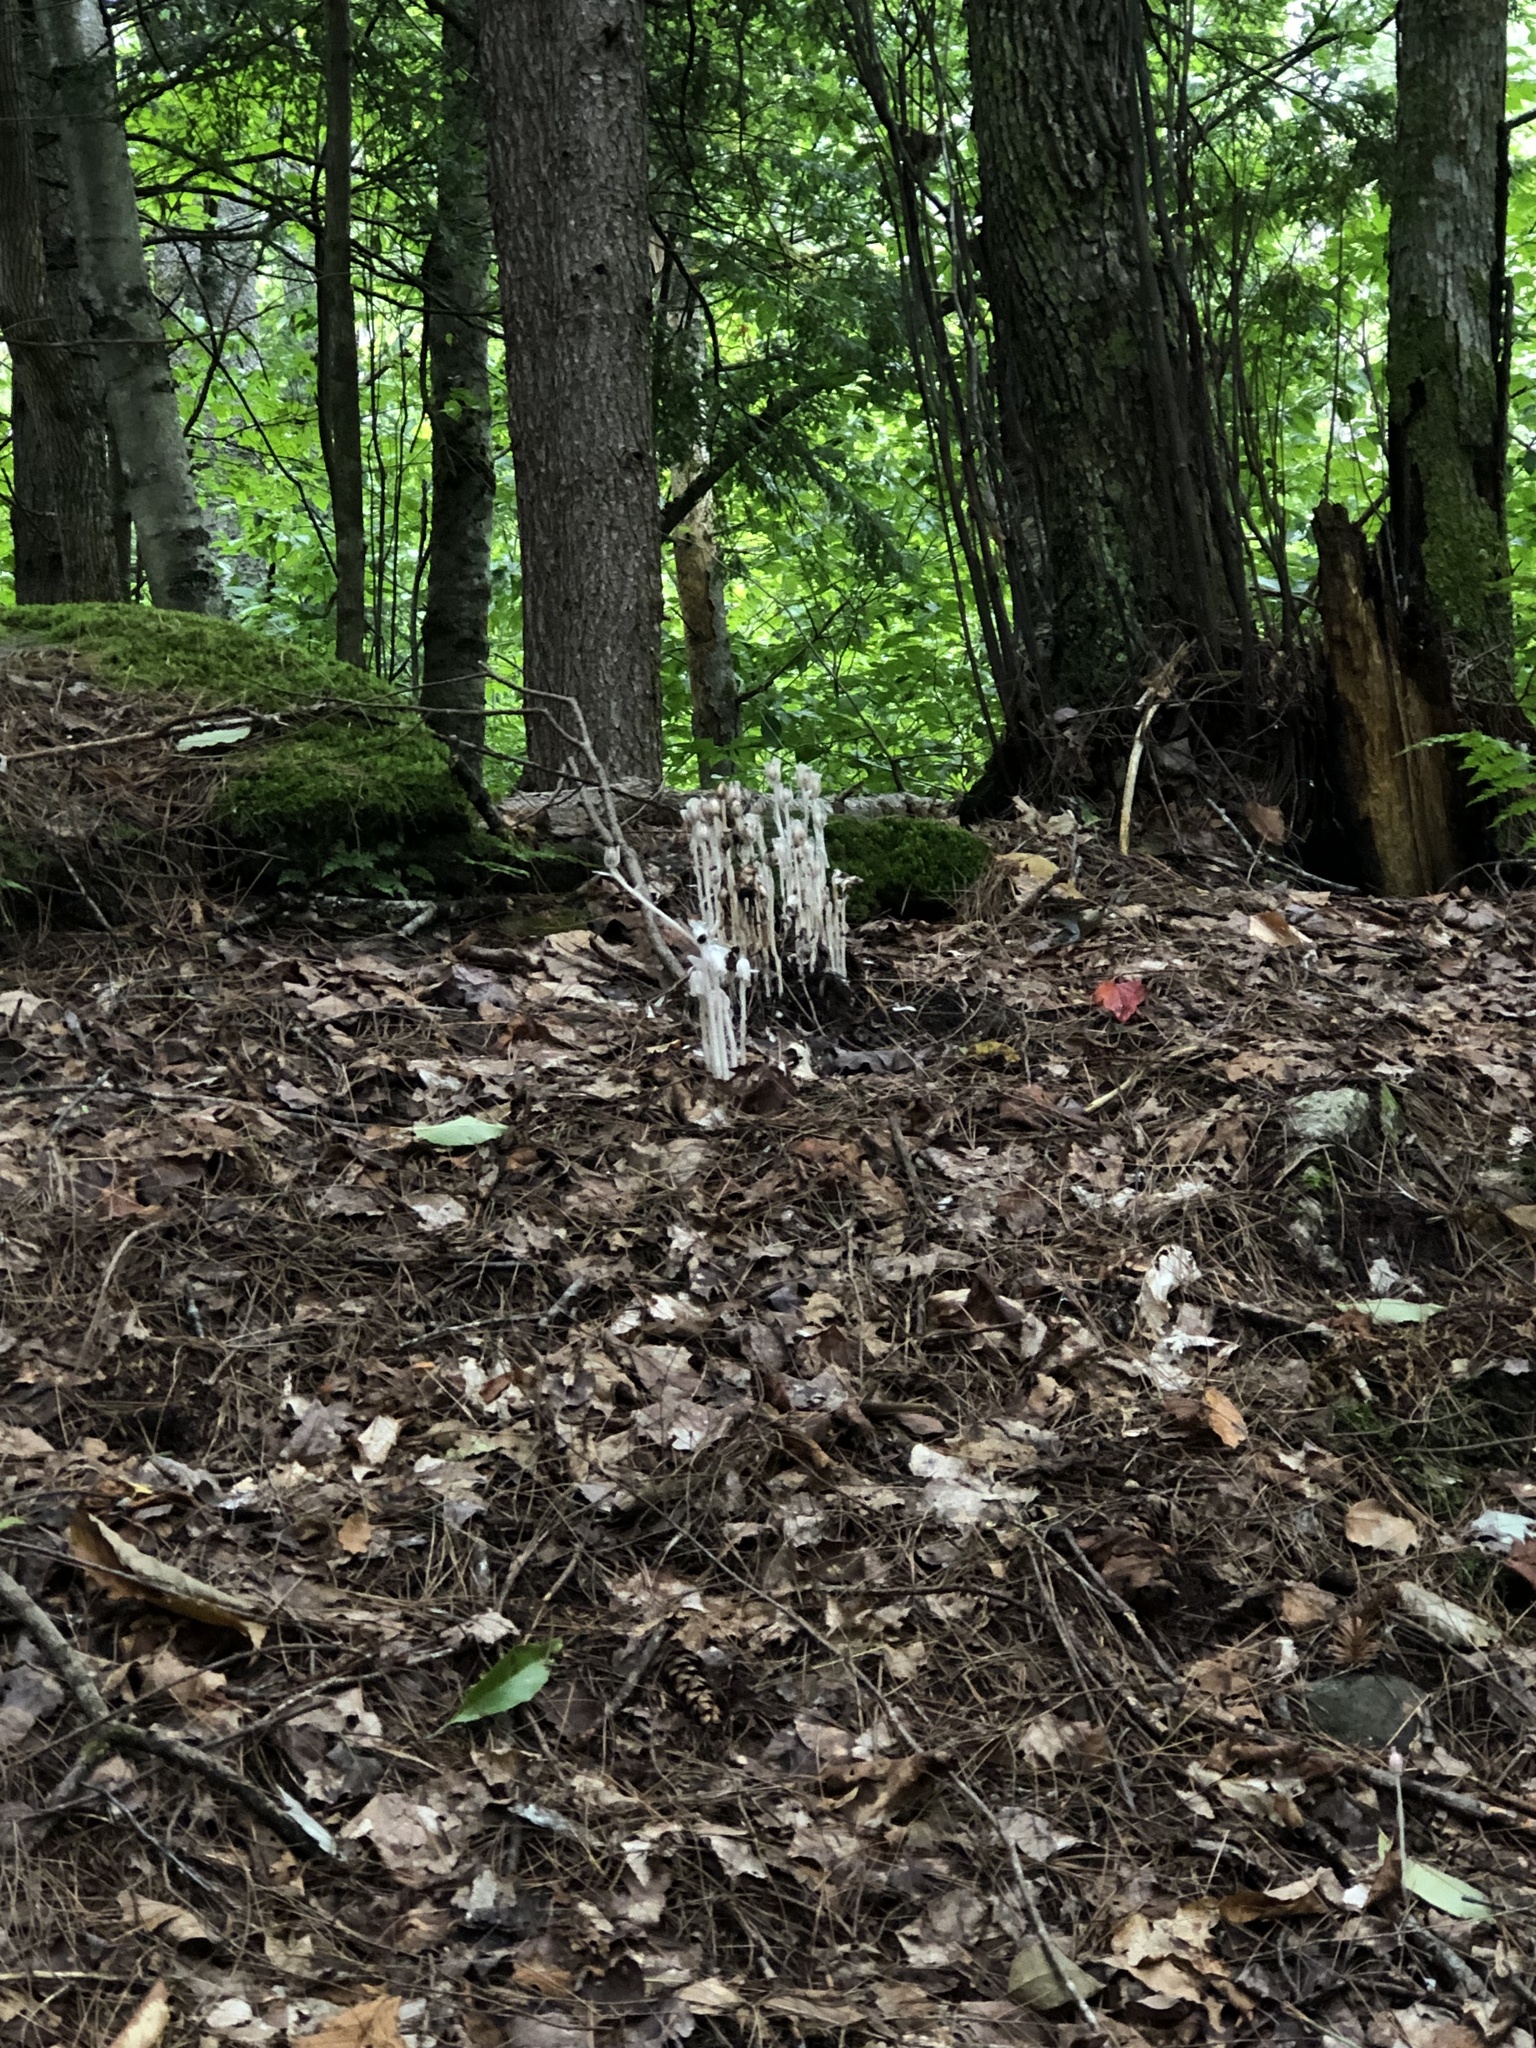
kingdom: Plantae
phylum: Tracheophyta
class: Magnoliopsida
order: Ericales
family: Ericaceae
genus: Monotropa
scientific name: Monotropa uniflora
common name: Convulsion root
